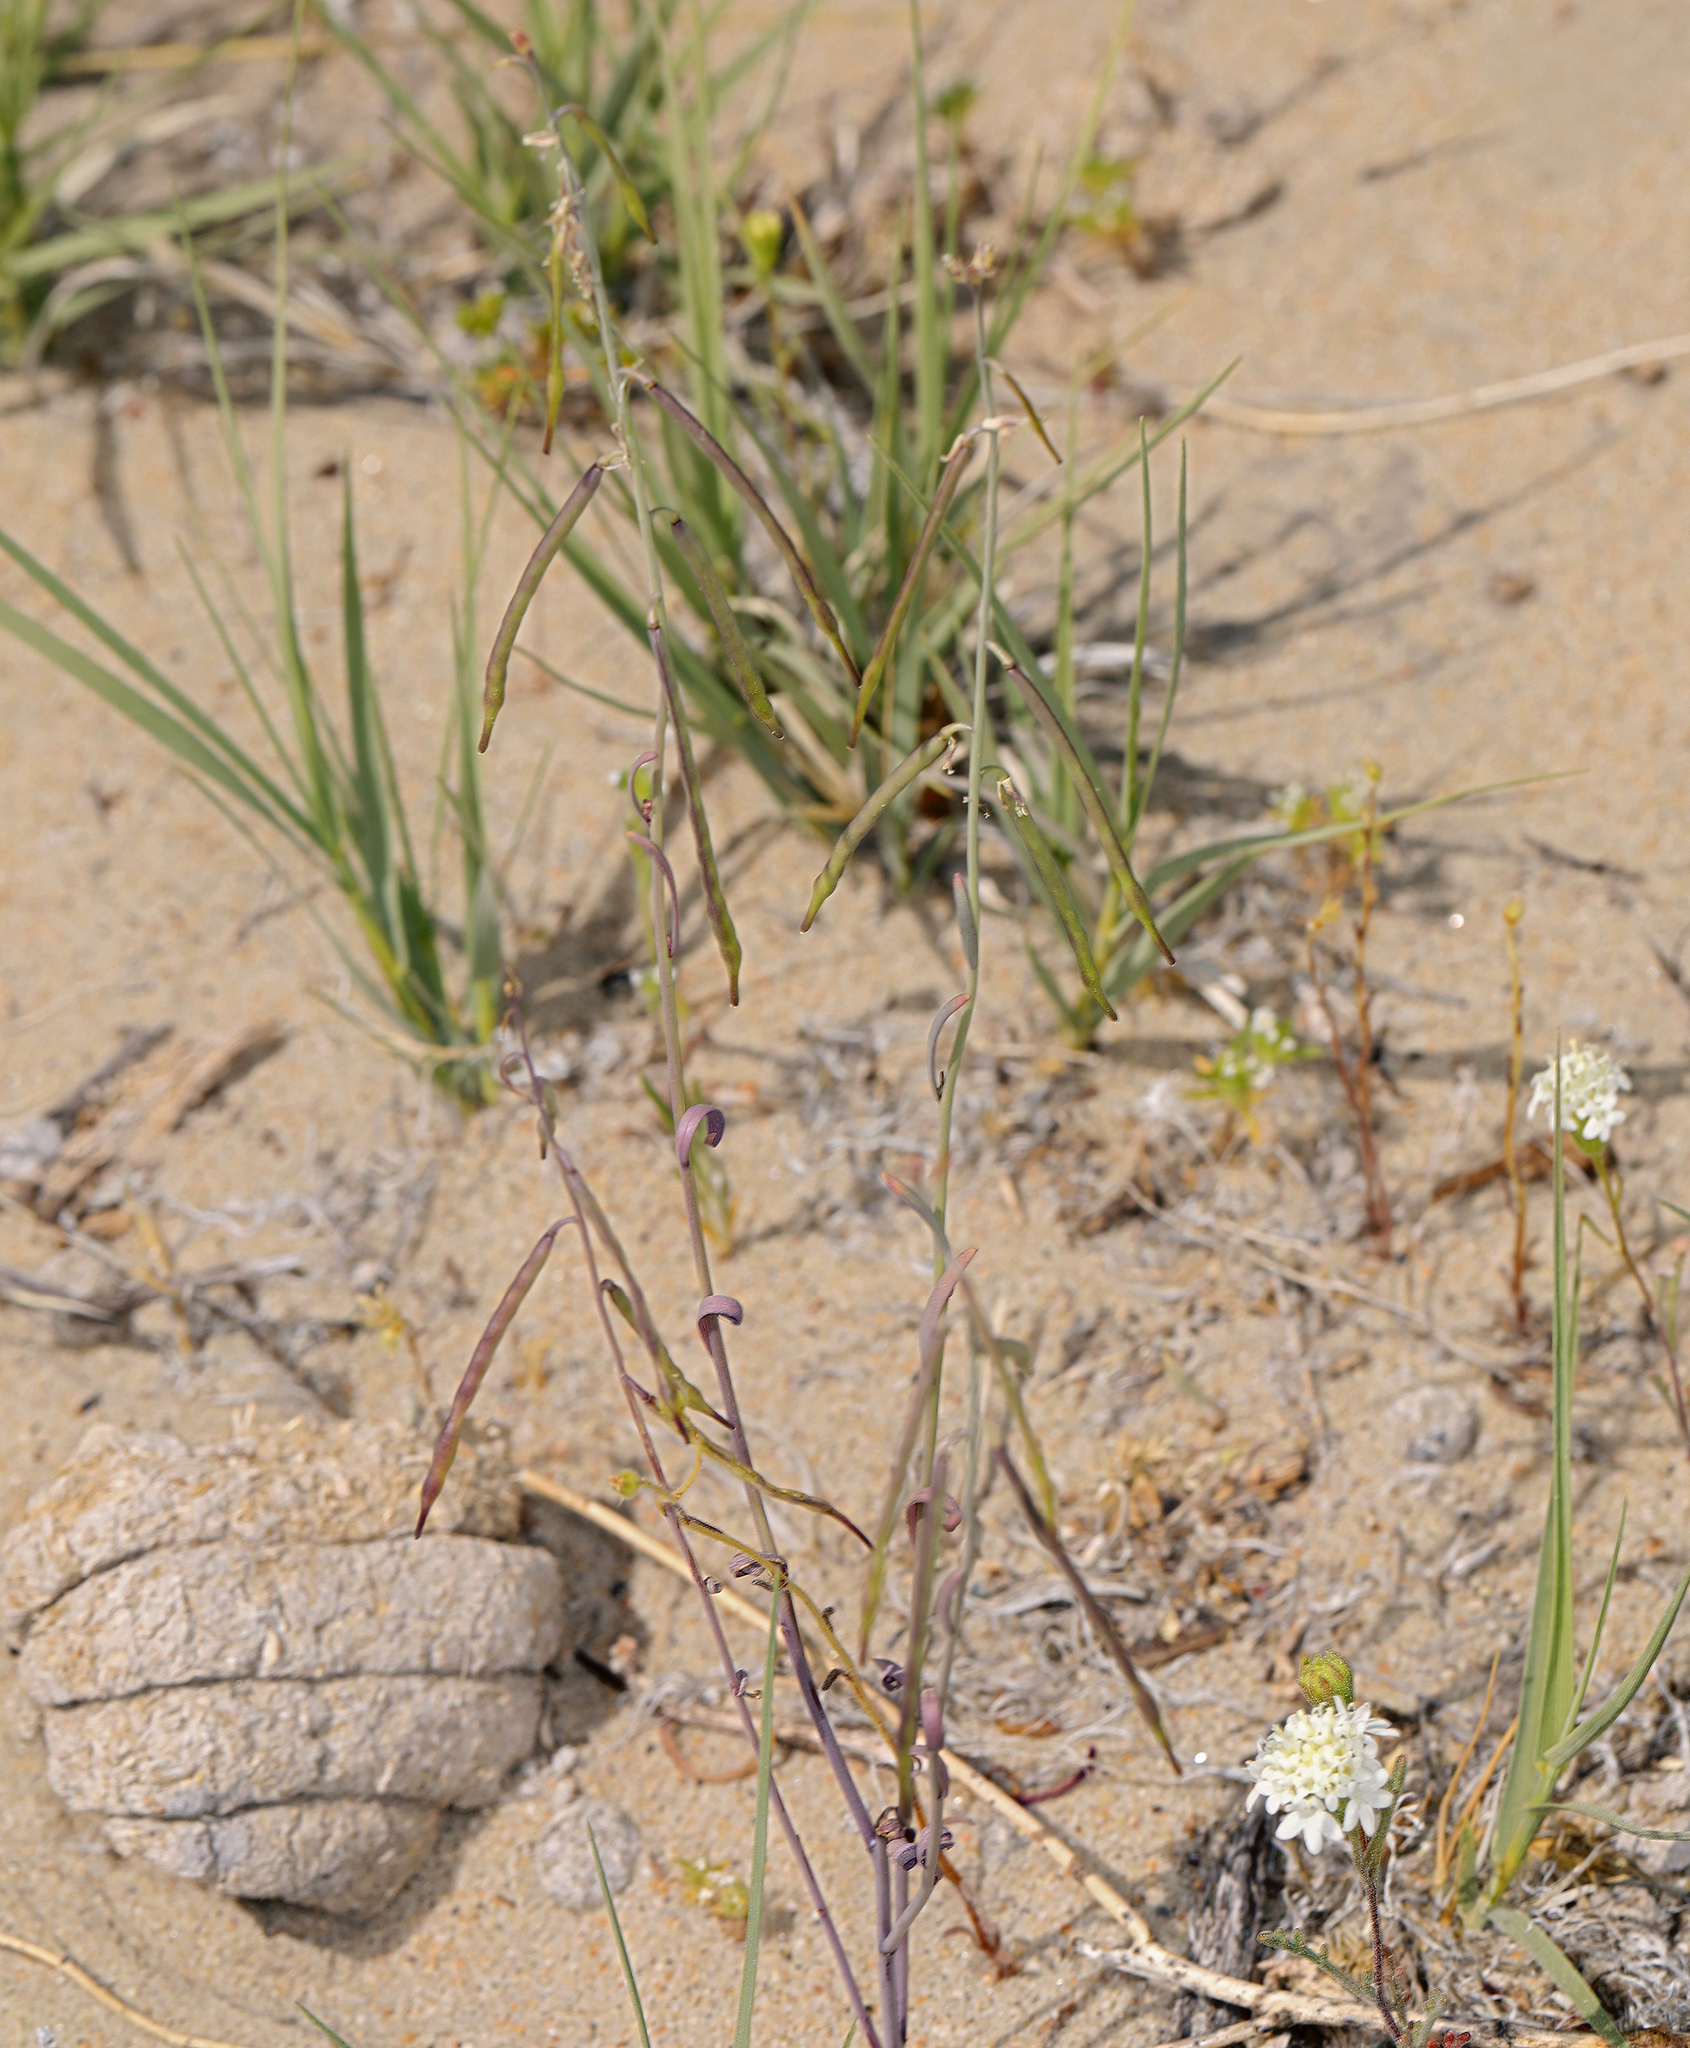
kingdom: Plantae
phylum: Tracheophyta
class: Magnoliopsida
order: Brassicales
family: Brassicaceae
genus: Streptanthus
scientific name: Streptanthus longirostris
